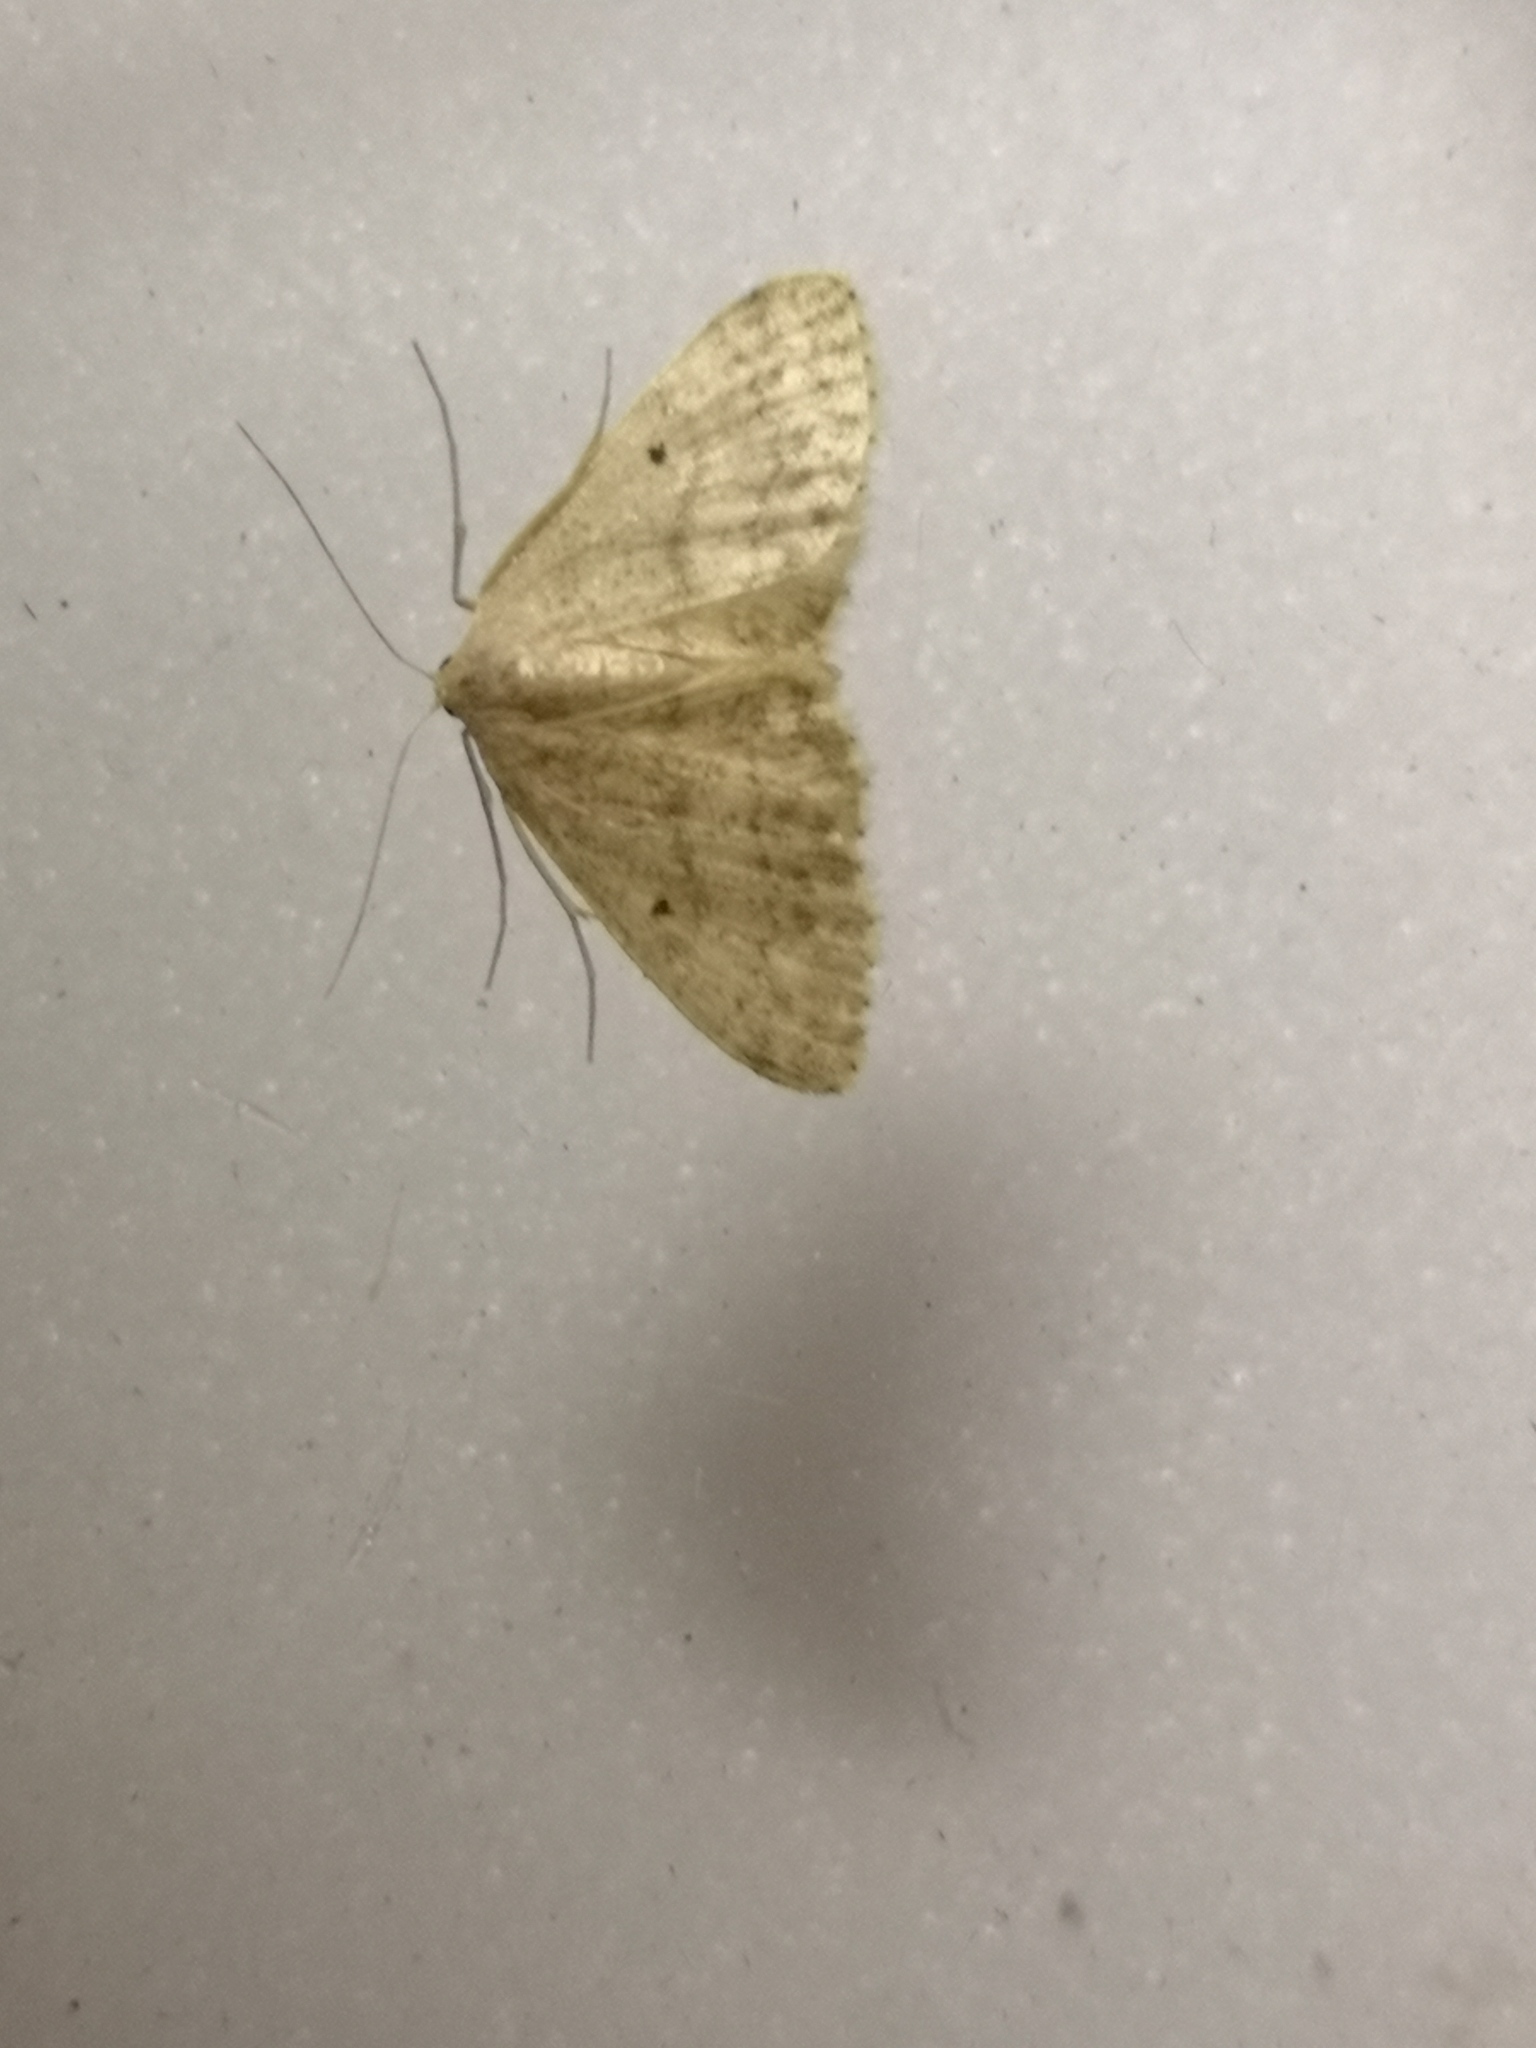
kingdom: Animalia
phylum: Arthropoda
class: Insecta
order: Lepidoptera
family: Geometridae
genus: Idaea
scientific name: Idaea biselata
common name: Small fan-footed wave
